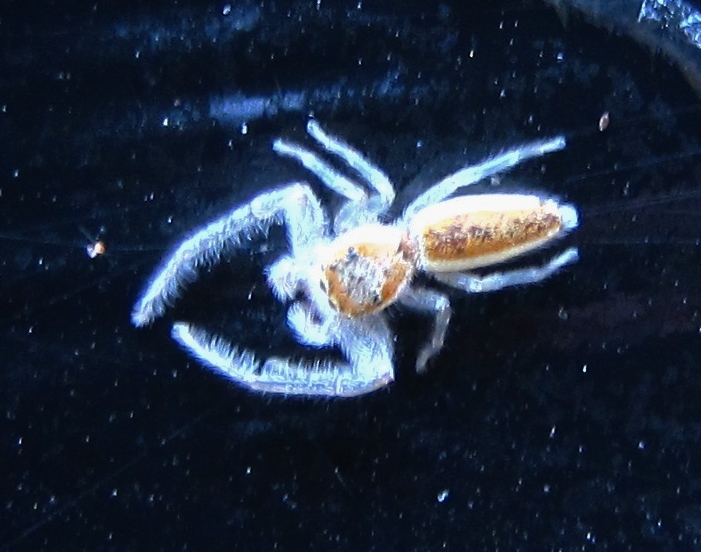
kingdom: Animalia
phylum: Arthropoda
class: Arachnida
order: Araneae
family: Salticidae
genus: Hentzia
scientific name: Hentzia mitrata
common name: White-jawed jumping spider
